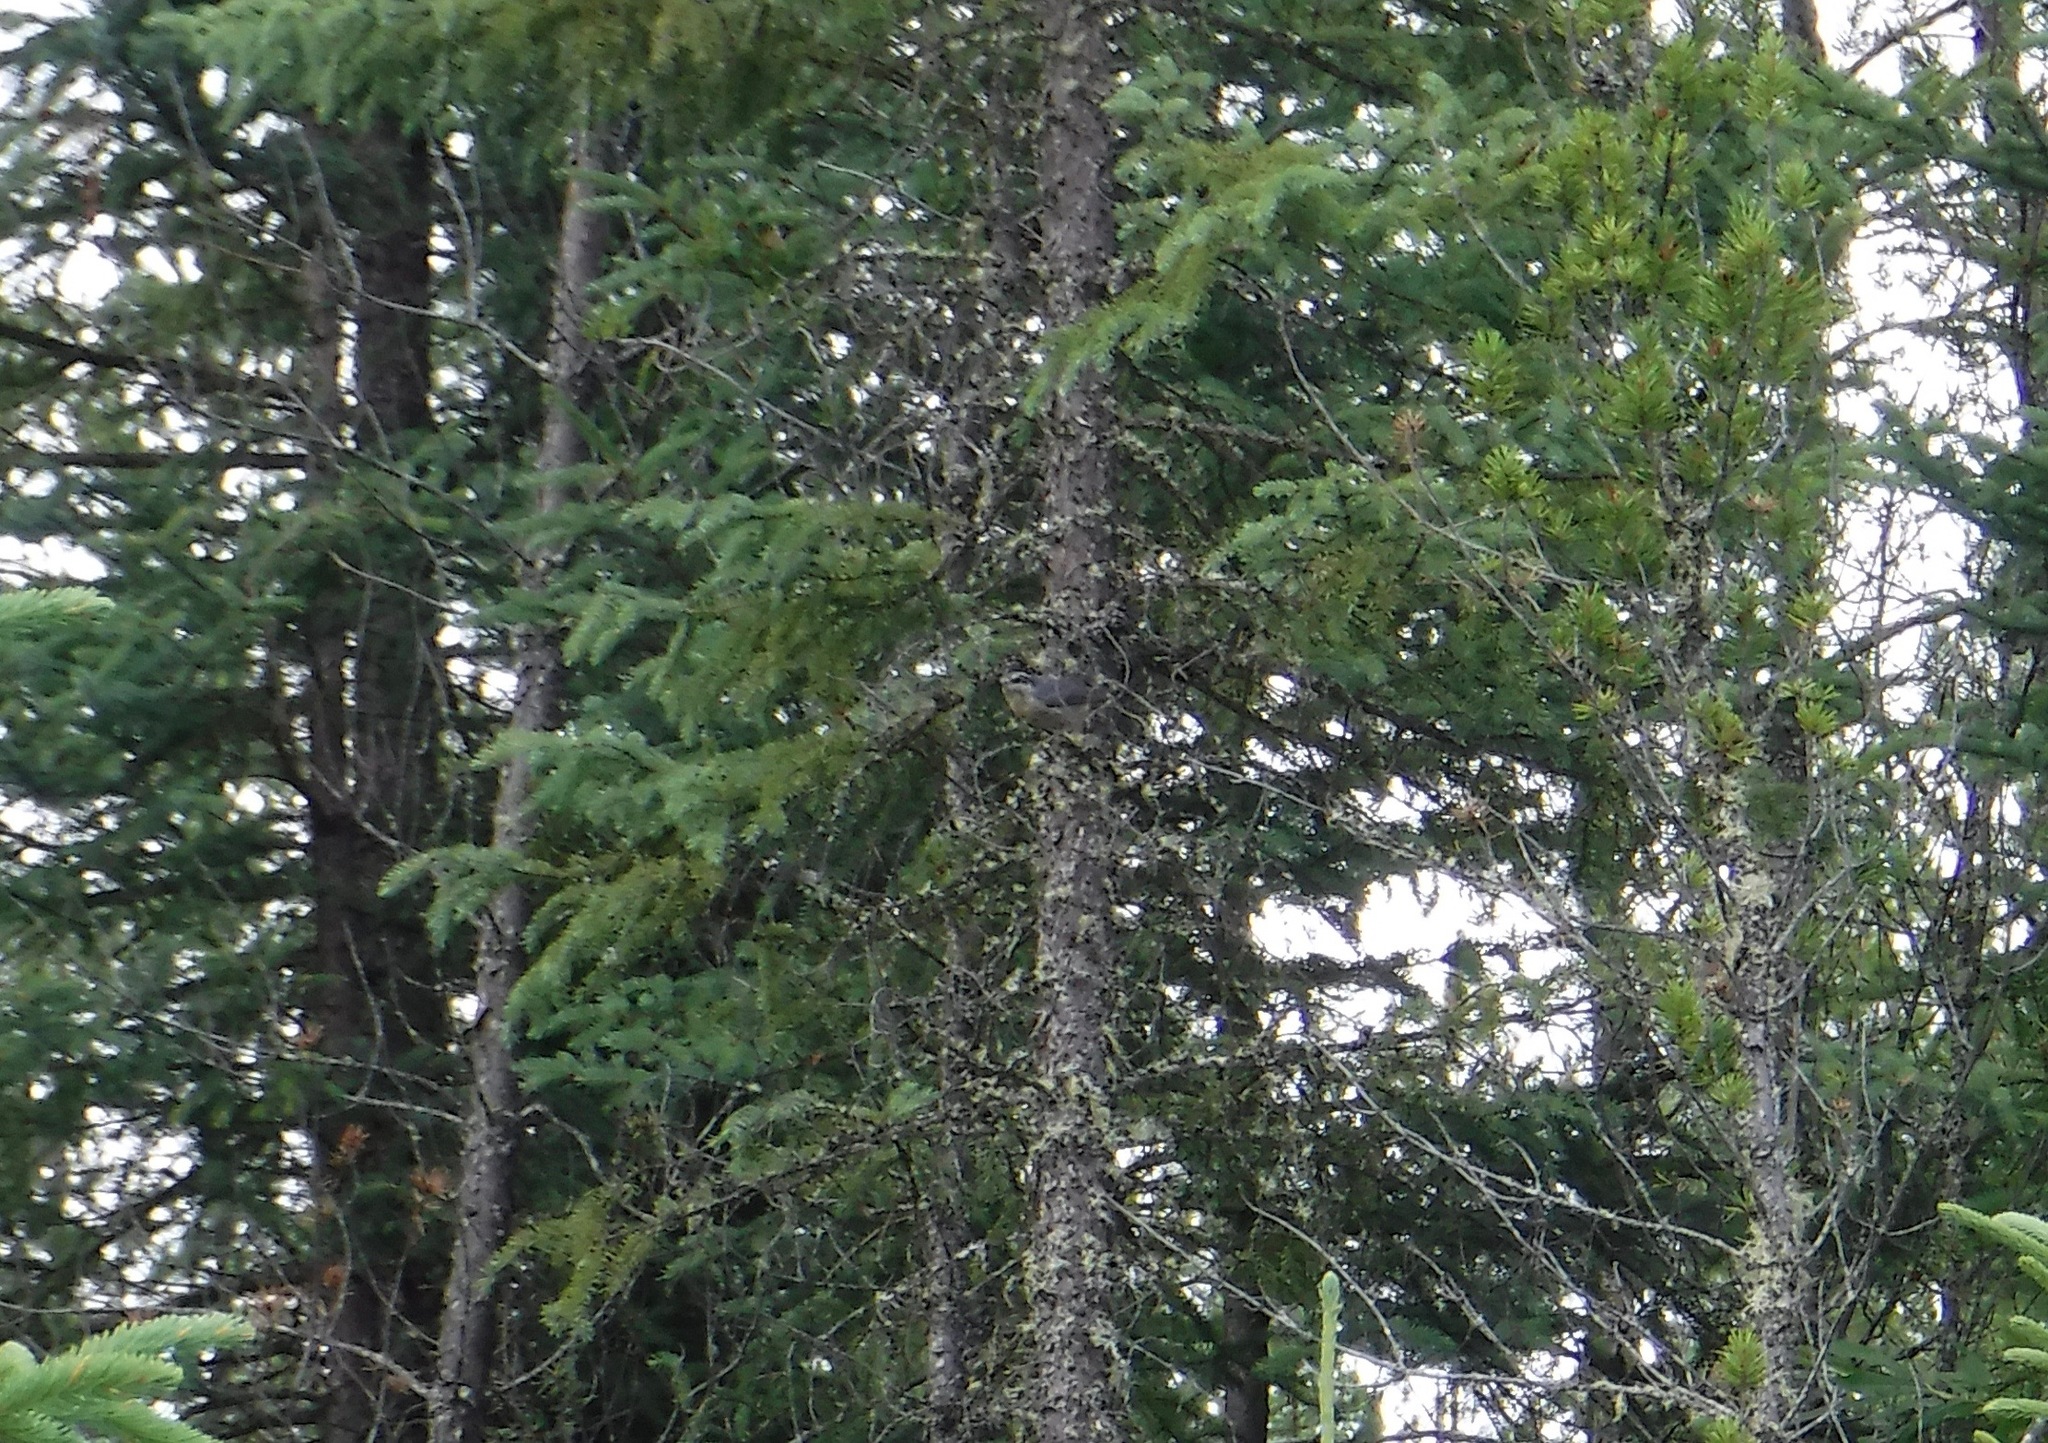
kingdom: Animalia
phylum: Chordata
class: Aves
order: Passeriformes
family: Sittidae
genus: Sitta
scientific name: Sitta canadensis
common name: Red-breasted nuthatch
